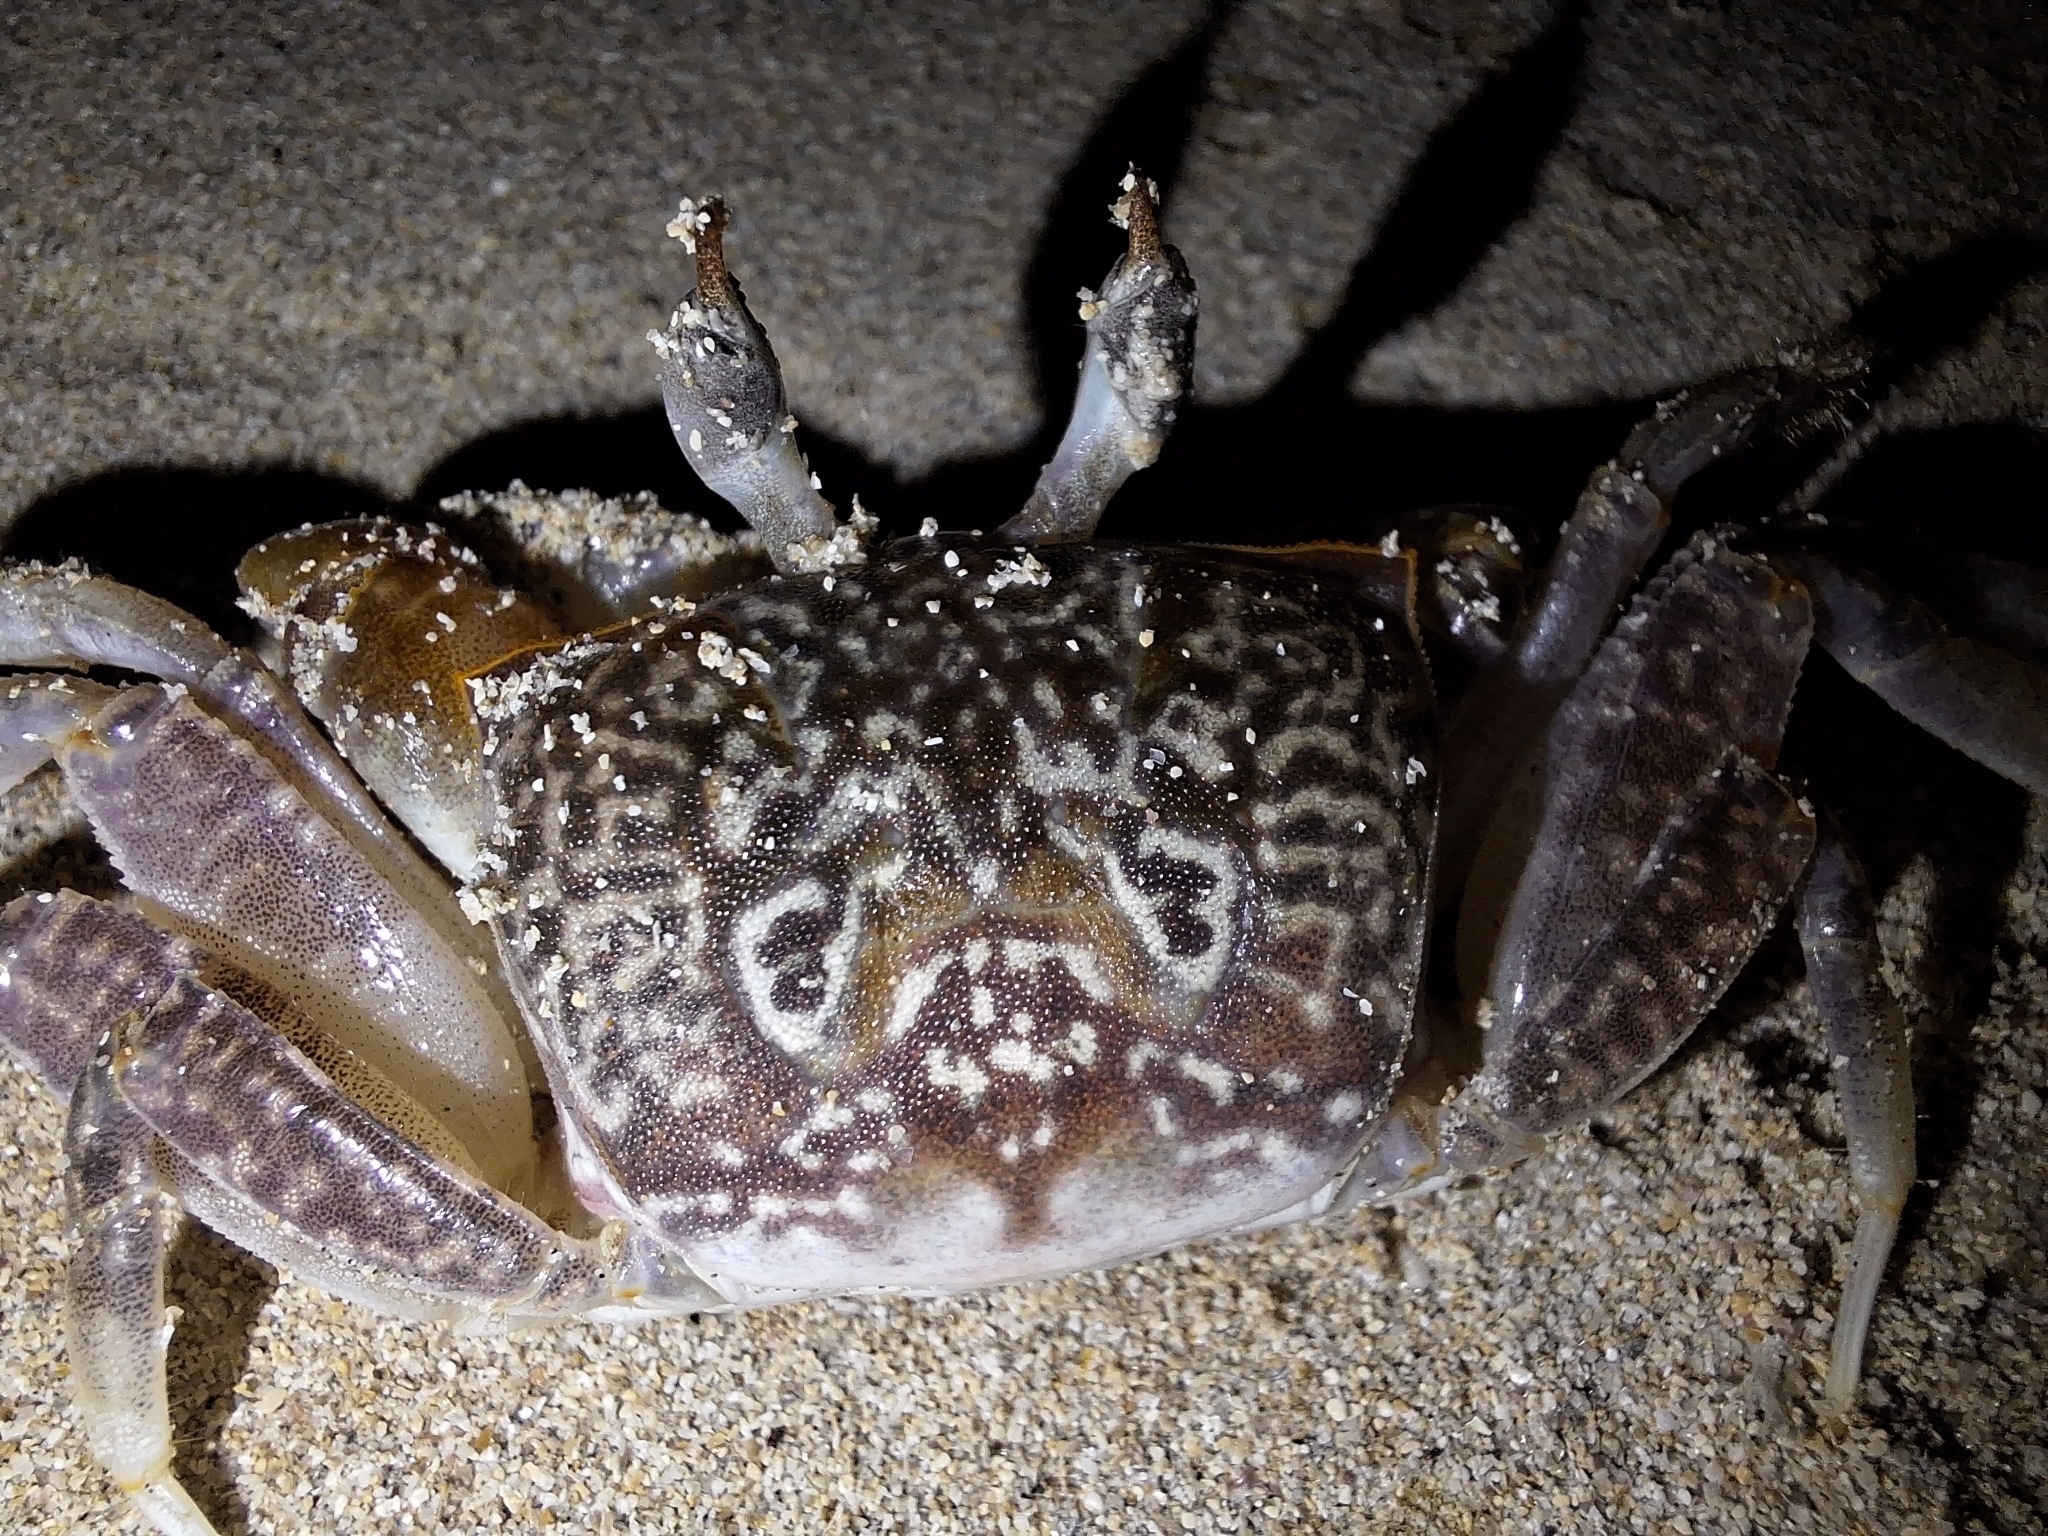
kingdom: Animalia
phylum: Arthropoda
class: Malacostraca
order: Decapoda
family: Ocypodidae
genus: Ocypode
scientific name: Ocypode gaudichaudii
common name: Pacific ghost crab
